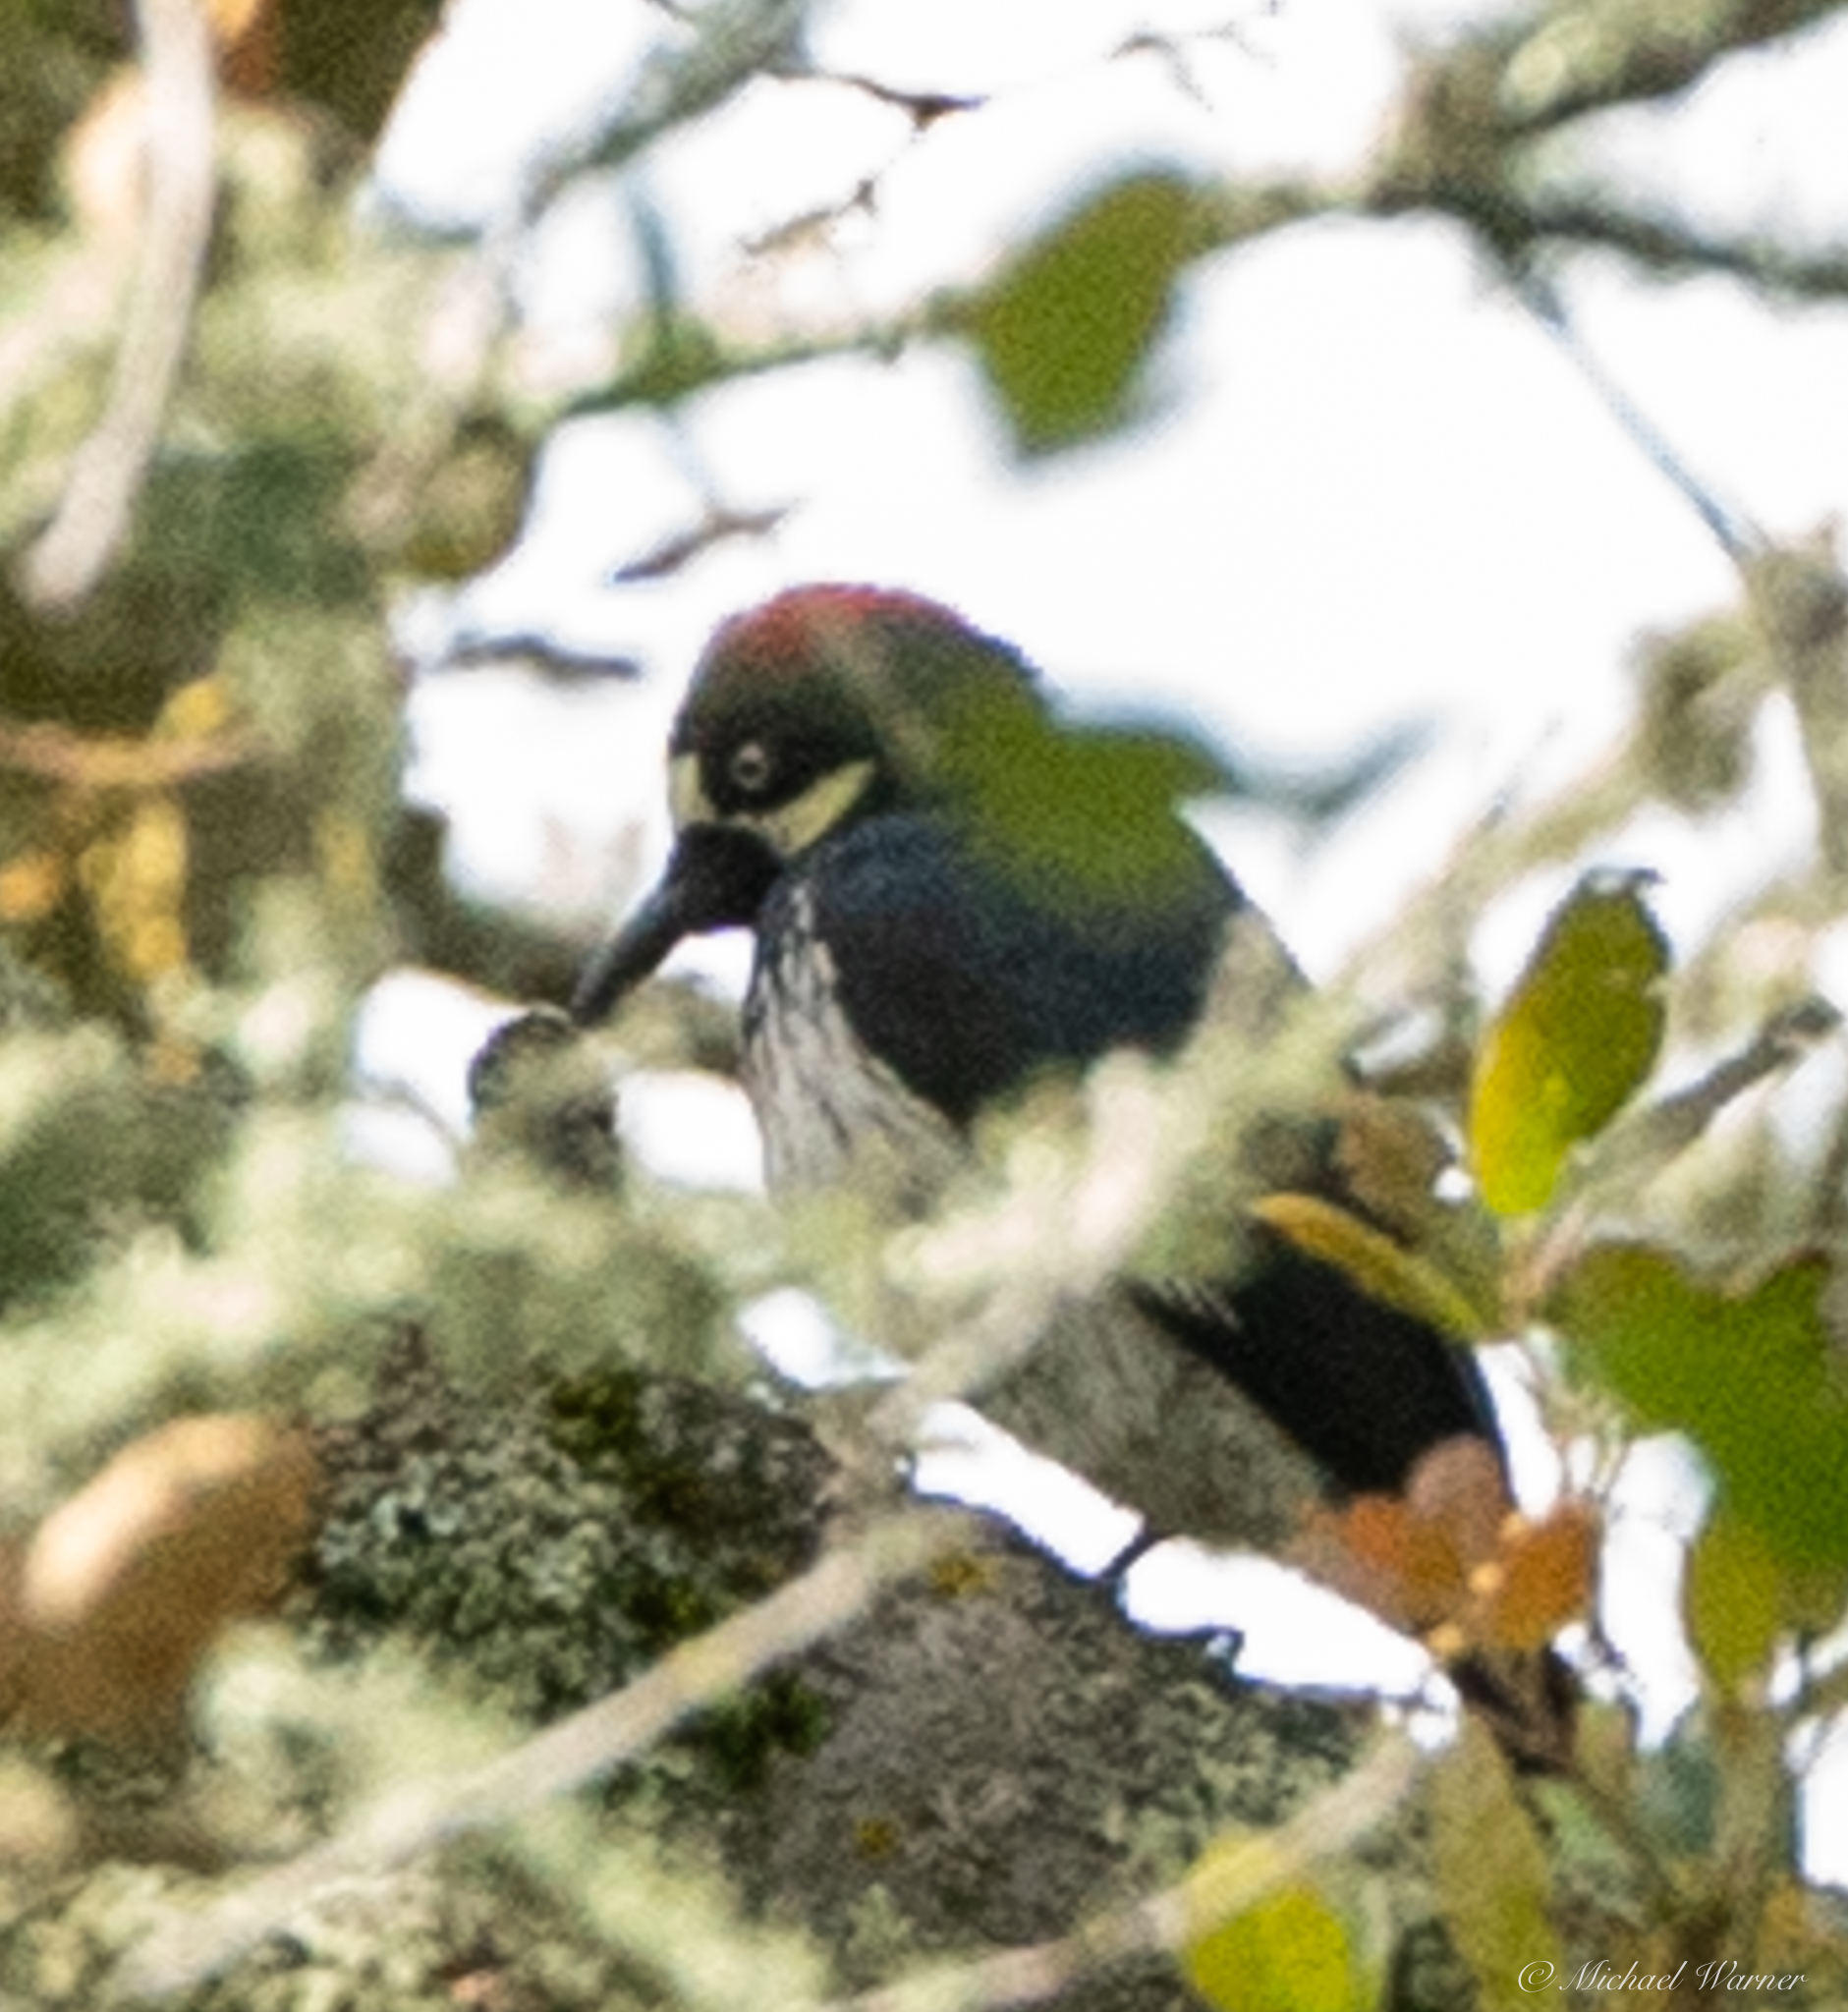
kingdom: Animalia
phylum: Chordata
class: Aves
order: Piciformes
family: Picidae
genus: Melanerpes
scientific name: Melanerpes formicivorus
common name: Acorn woodpecker
